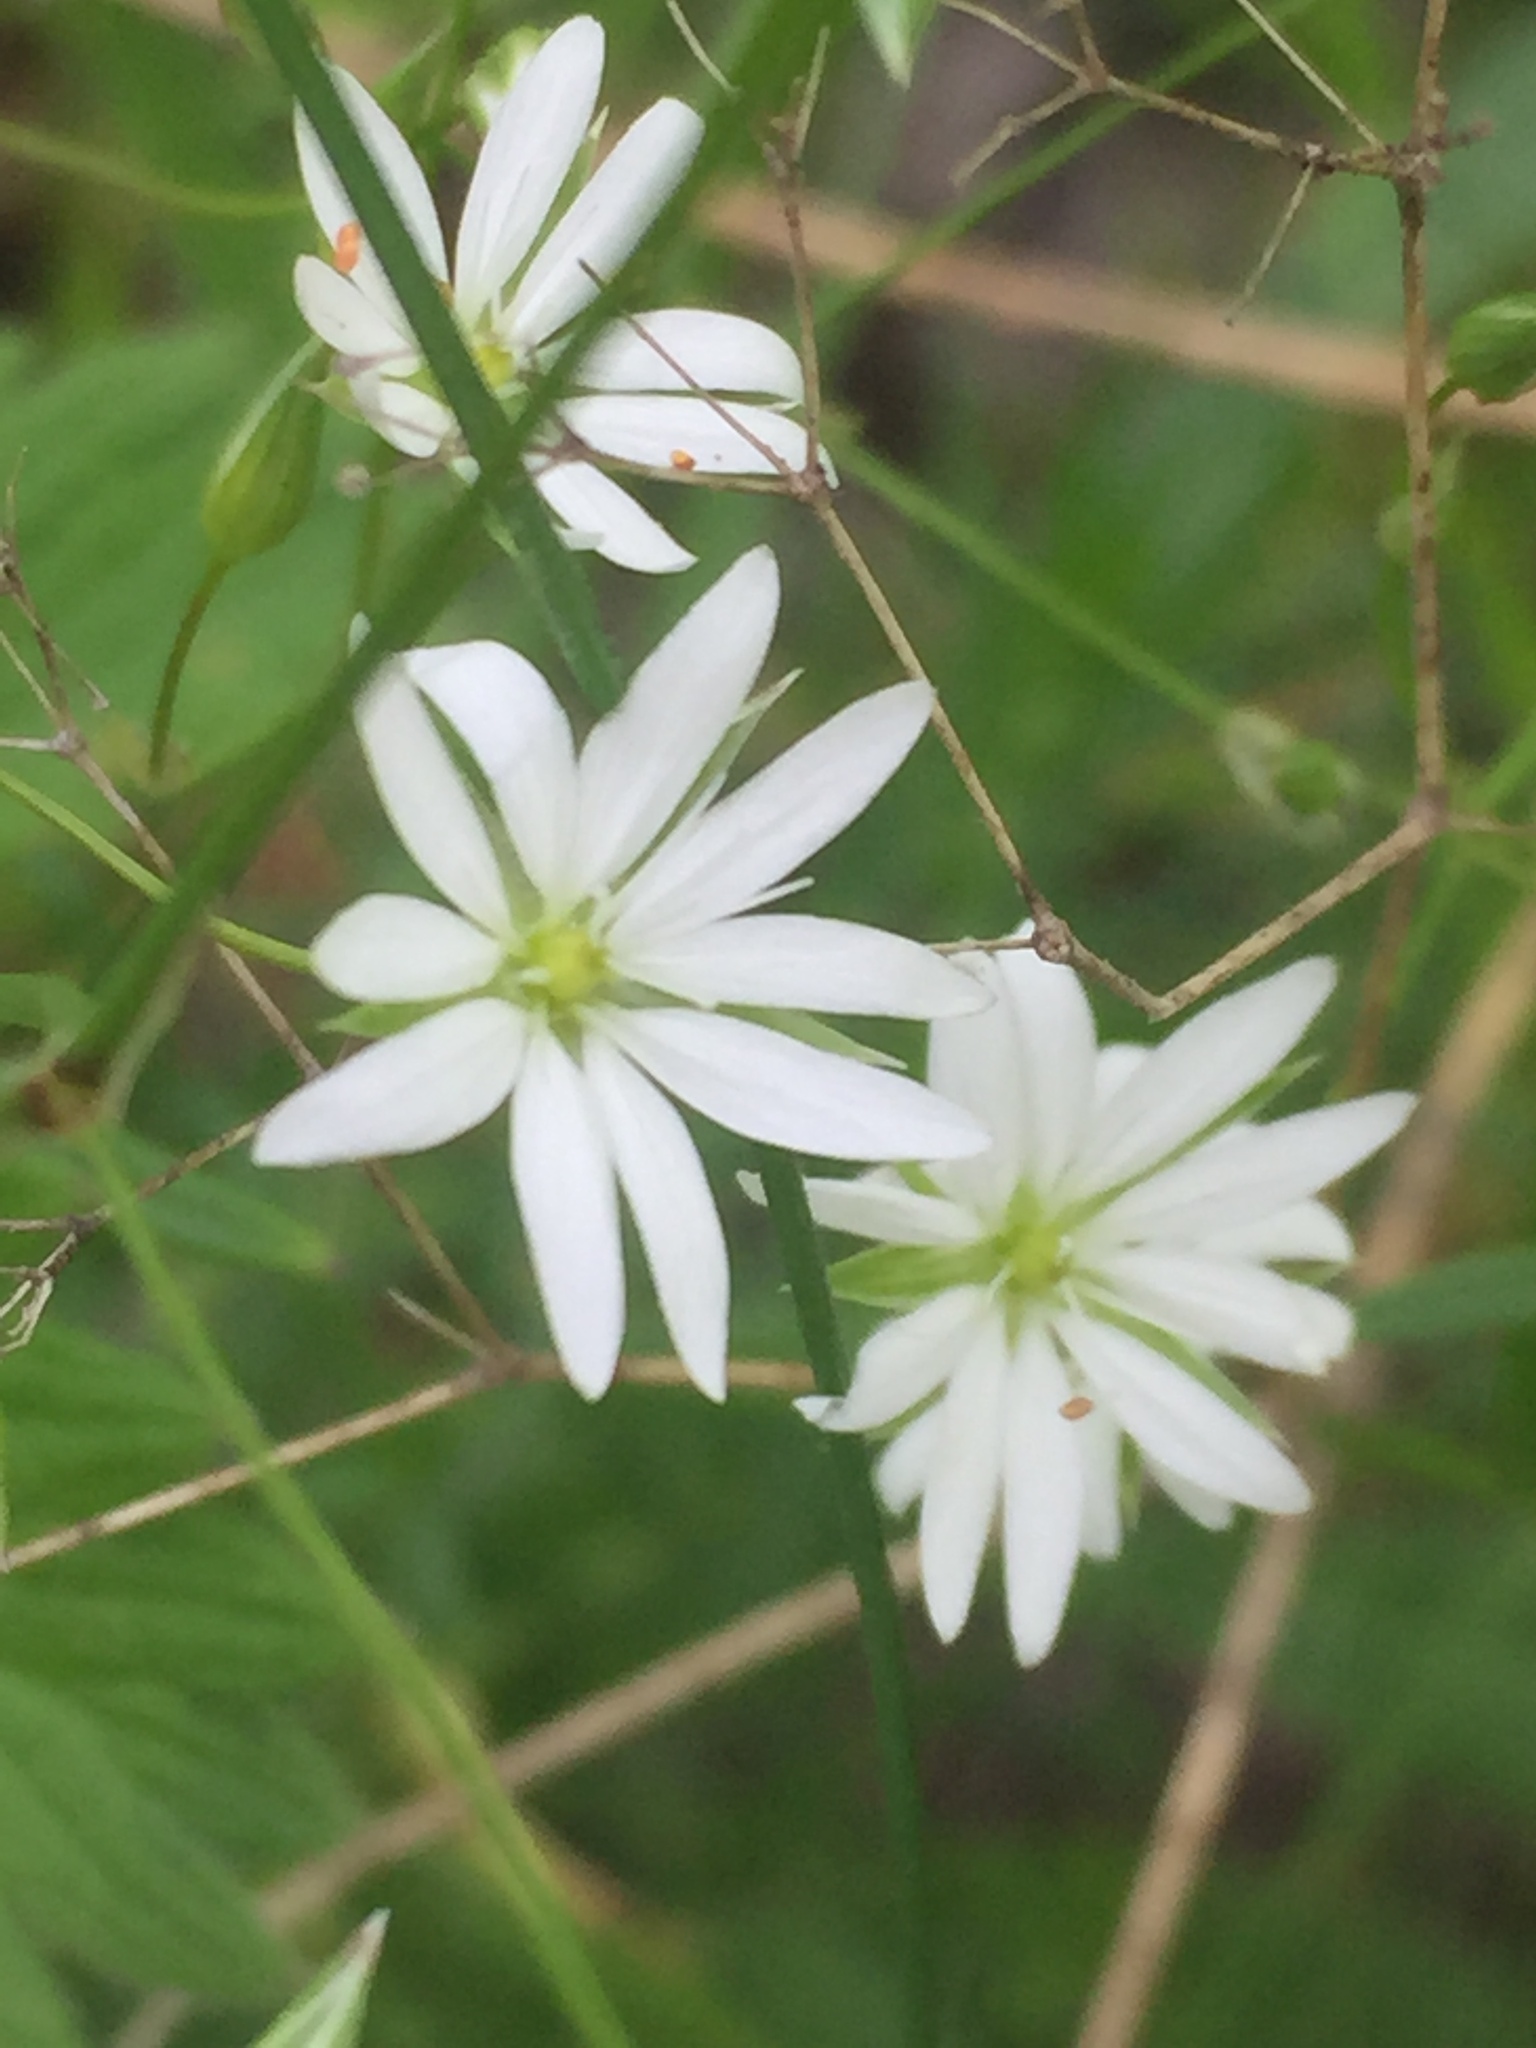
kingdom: Plantae
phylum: Tracheophyta
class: Magnoliopsida
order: Caryophyllales
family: Caryophyllaceae
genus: Rabelera
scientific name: Rabelera holostea
